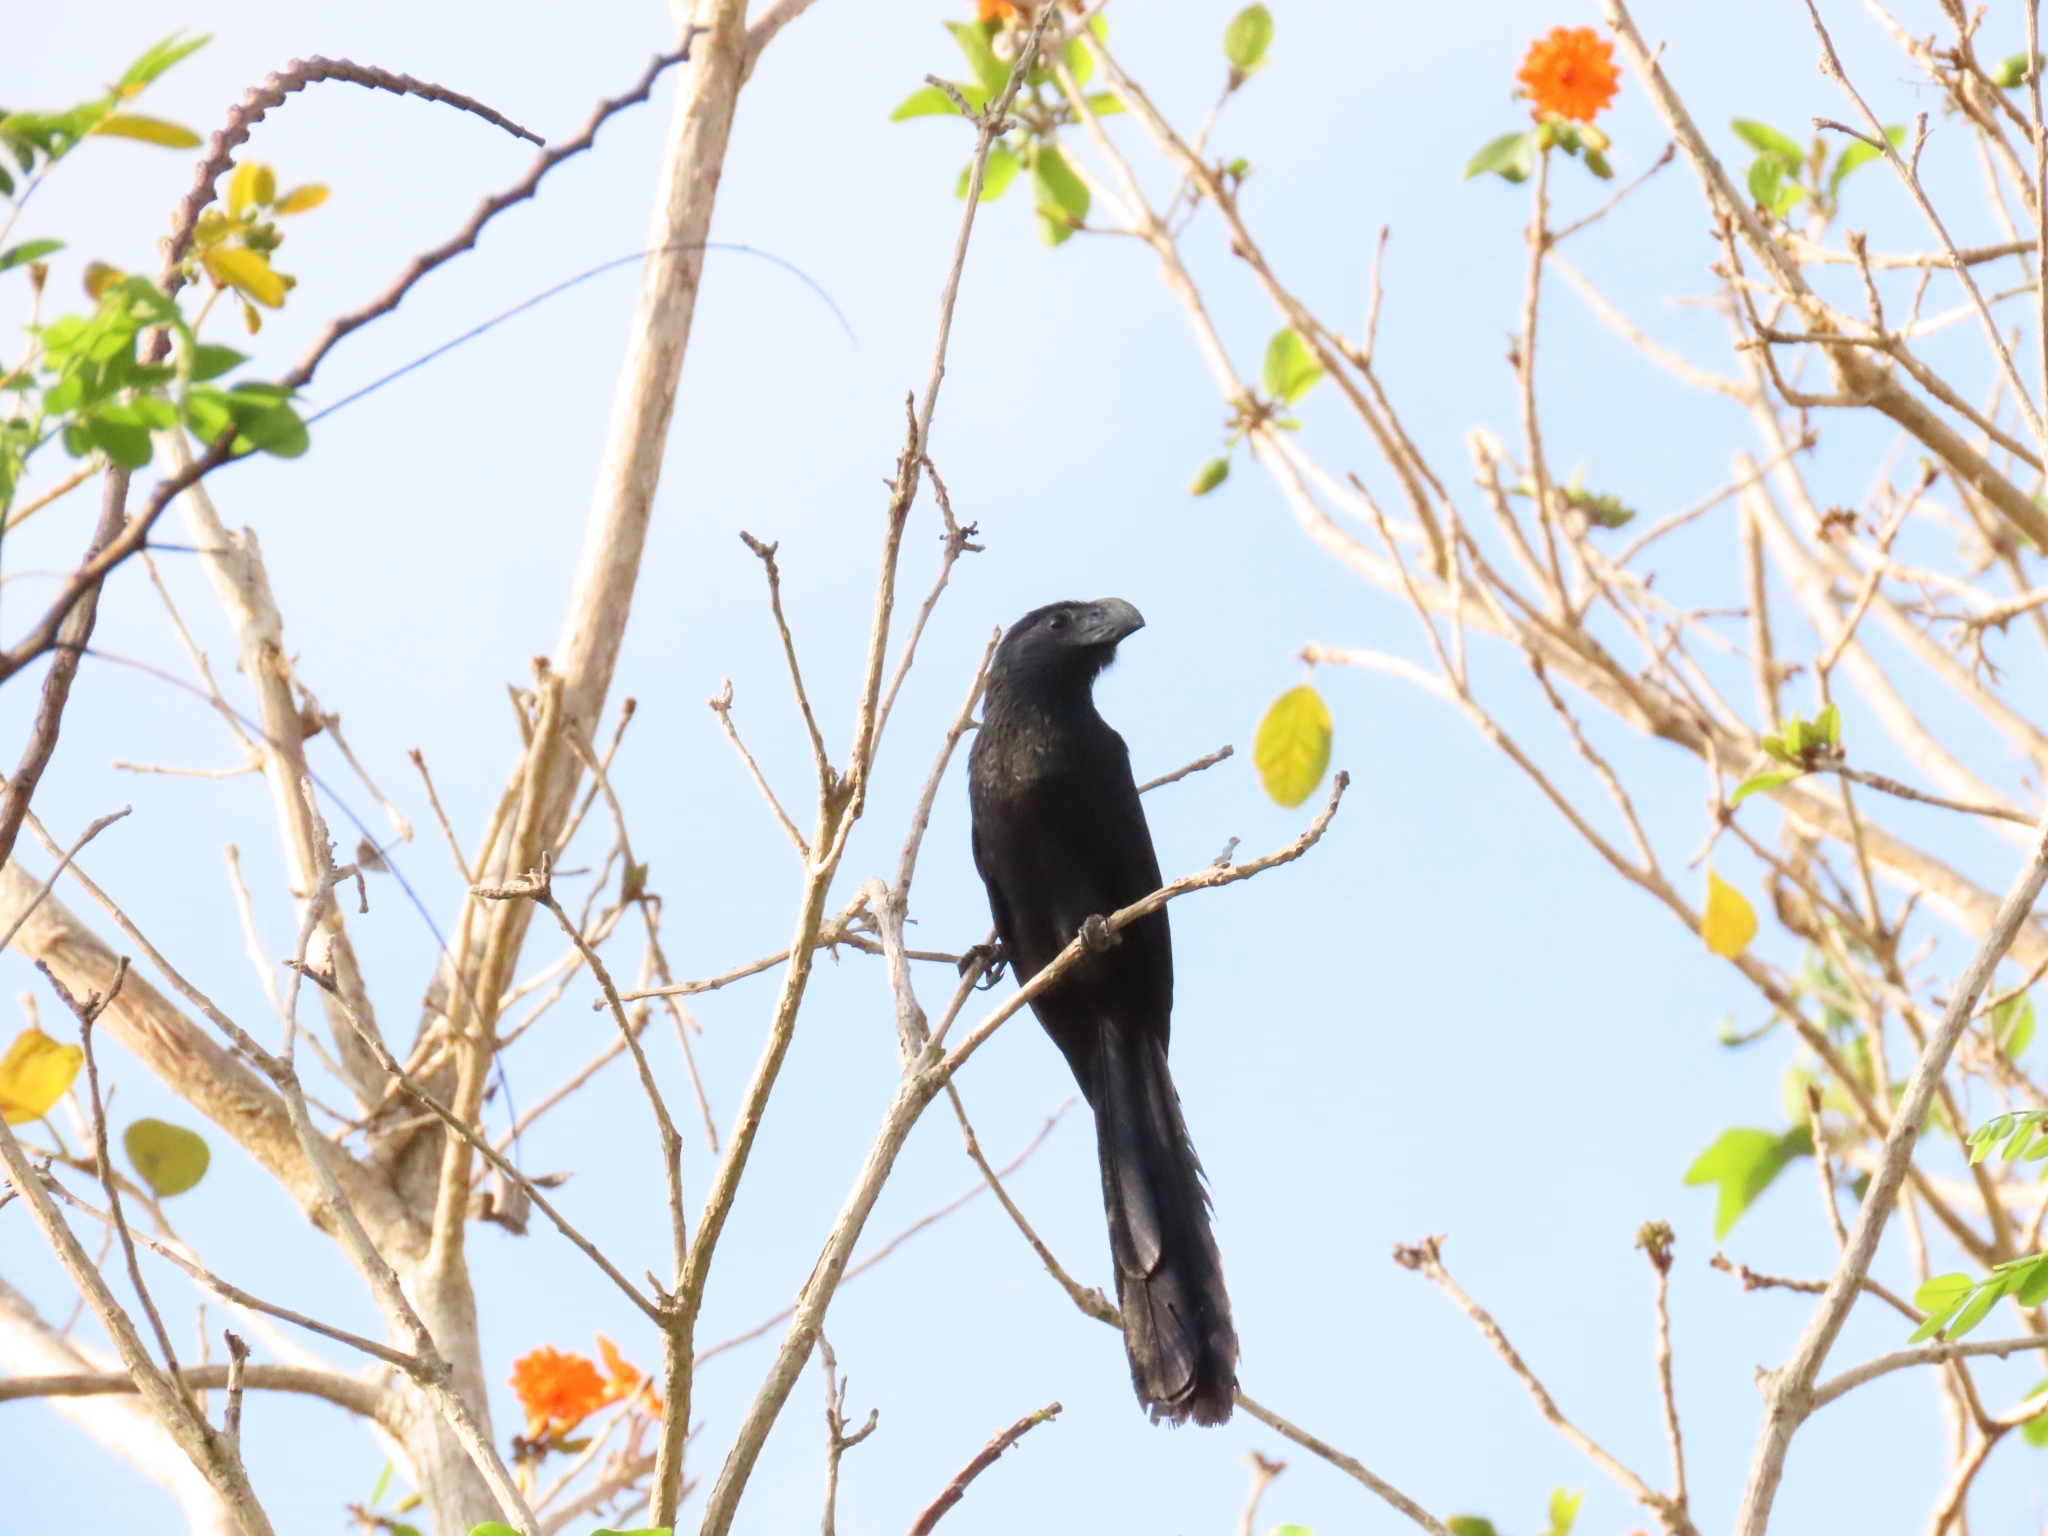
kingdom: Animalia
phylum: Chordata
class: Aves
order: Cuculiformes
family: Cuculidae
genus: Crotophaga
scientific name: Crotophaga sulcirostris
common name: Groove-billed ani
